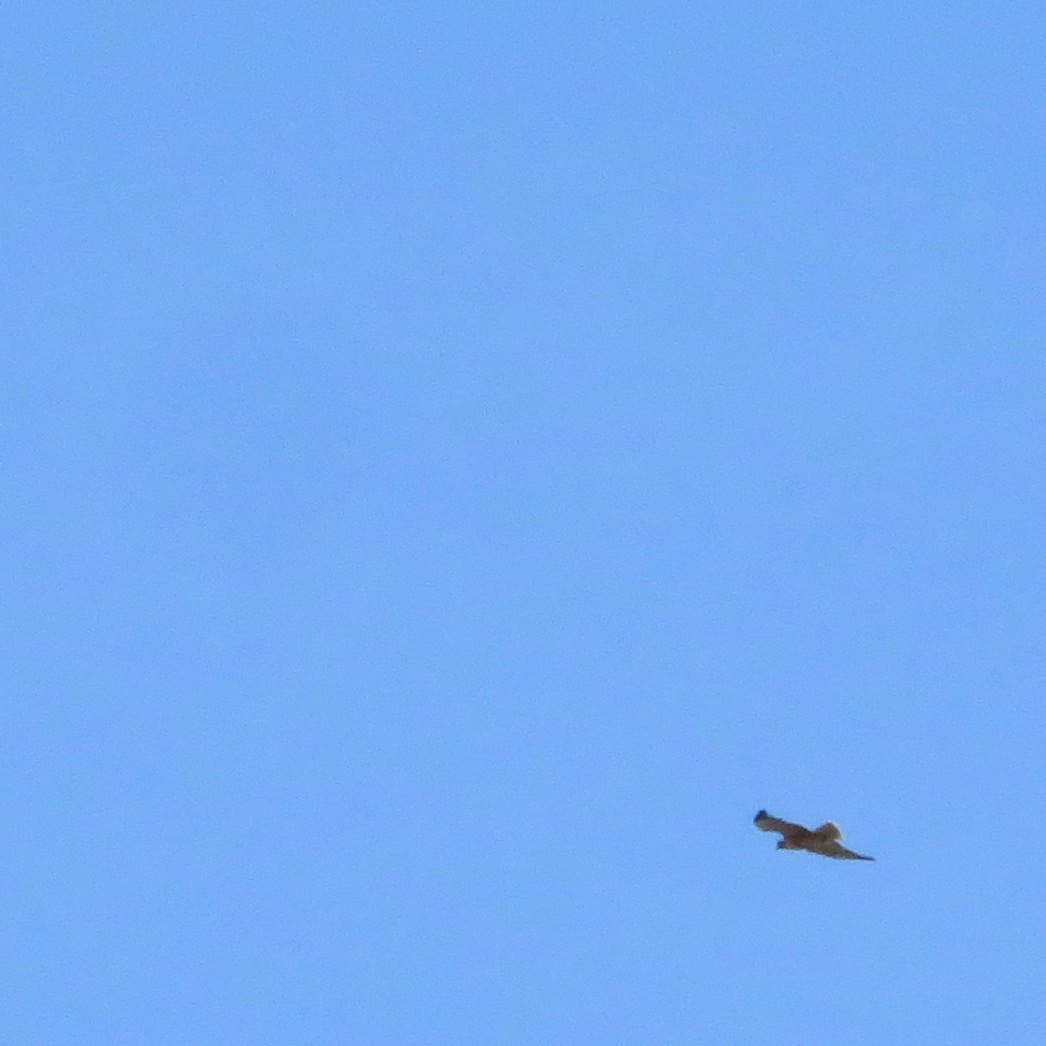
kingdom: Animalia
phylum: Chordata
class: Aves
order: Accipitriformes
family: Accipitridae
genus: Buteo
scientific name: Buteo jamaicensis
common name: Red-tailed hawk
